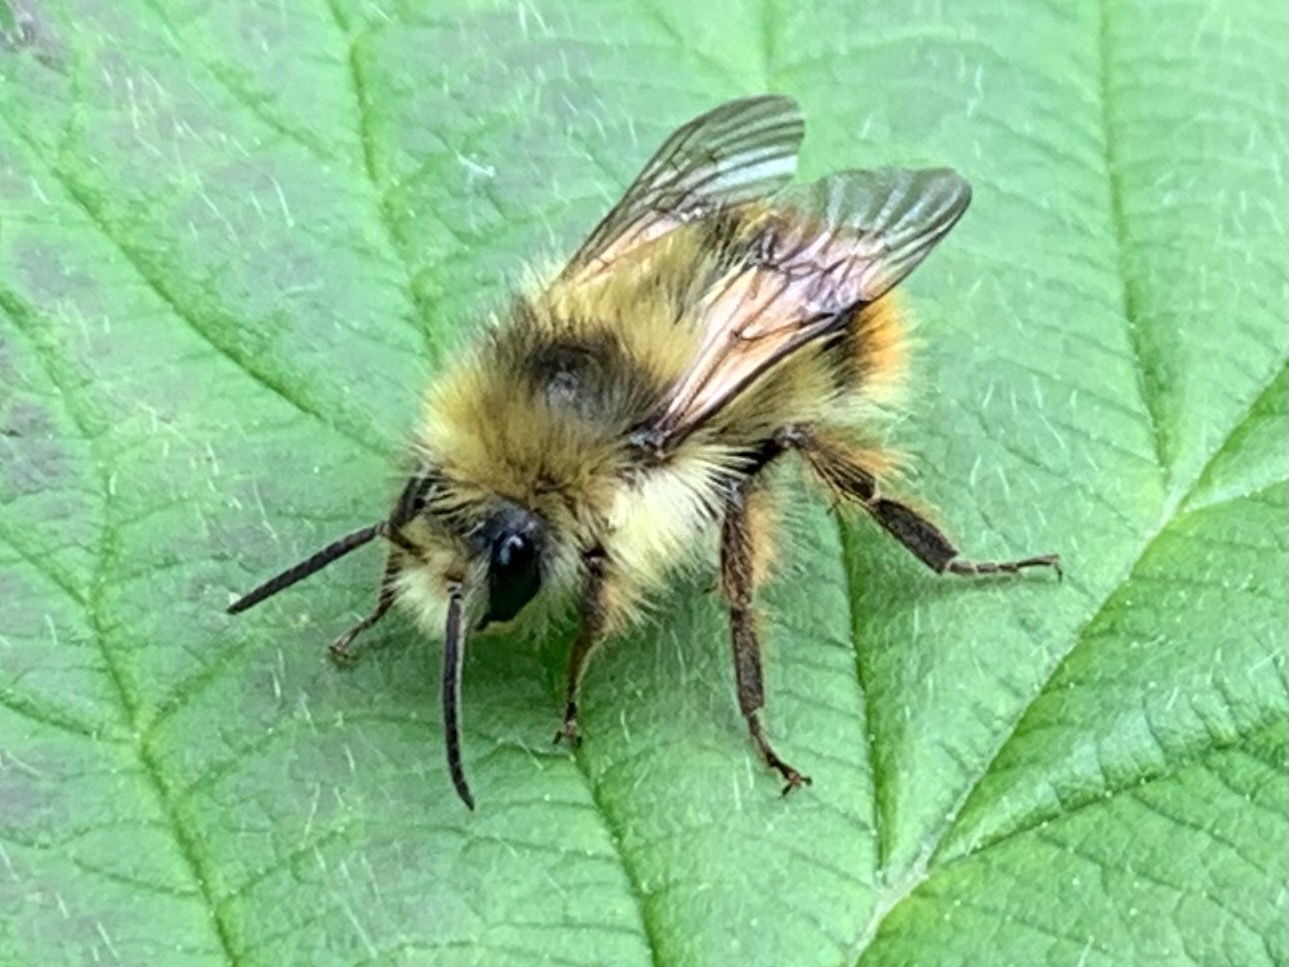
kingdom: Animalia
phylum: Arthropoda
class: Insecta
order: Hymenoptera
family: Apidae
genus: Bombus
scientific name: Bombus mixtus
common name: Fuzzy-horned bumble bee
